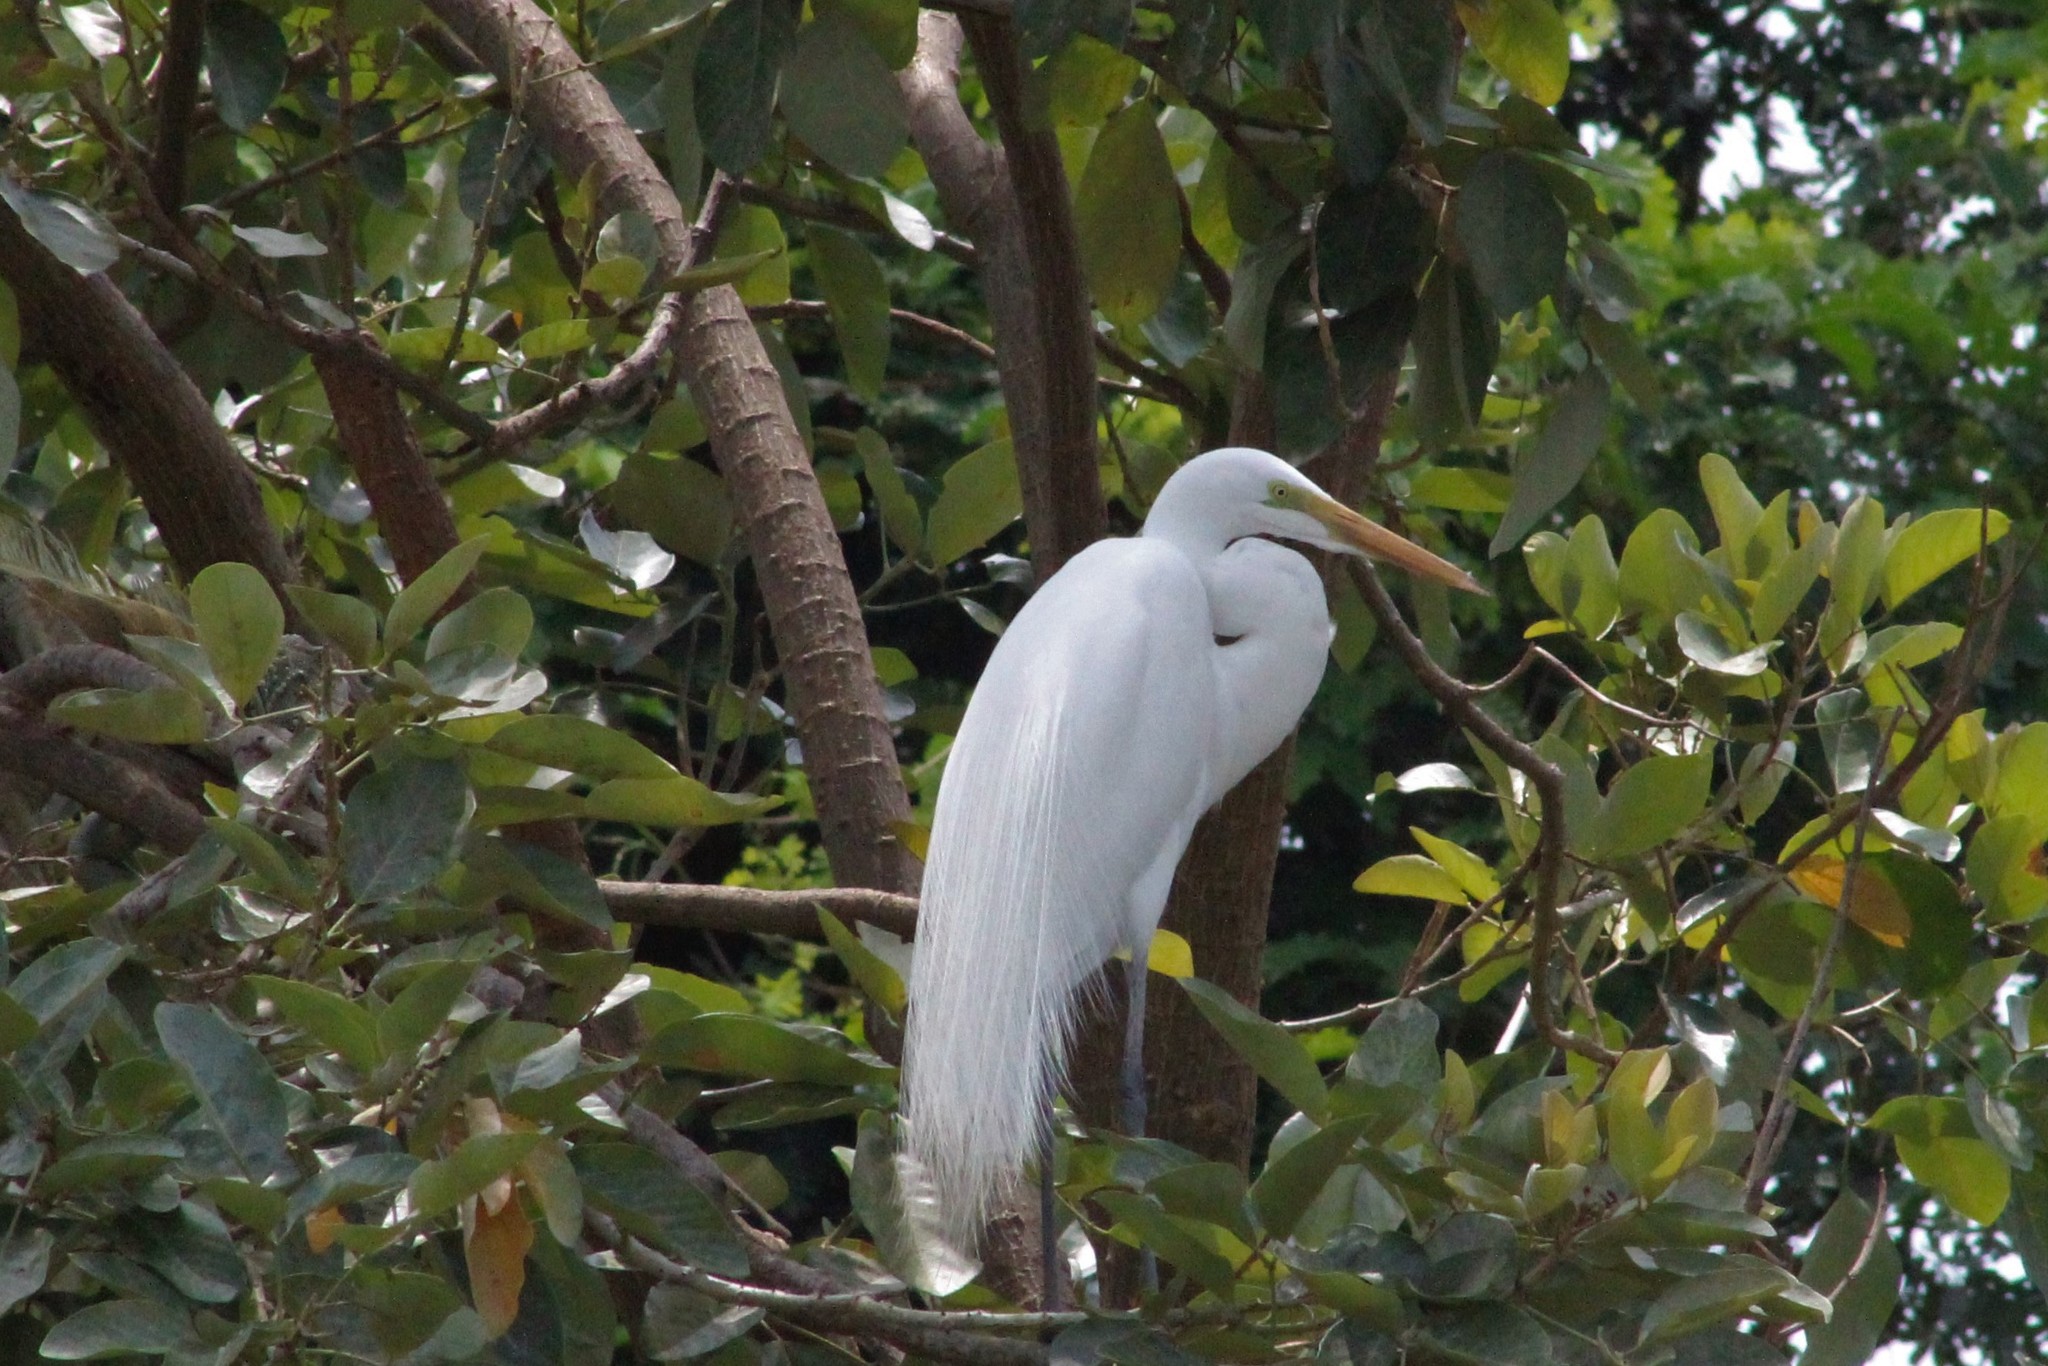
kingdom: Animalia
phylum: Chordata
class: Aves
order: Pelecaniformes
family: Ardeidae
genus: Ardea
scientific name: Ardea alba
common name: Great egret
